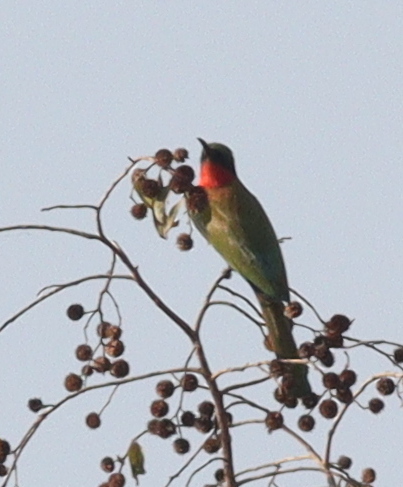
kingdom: Animalia
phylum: Chordata
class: Aves
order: Coraciiformes
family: Meropidae
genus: Merops
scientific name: Merops bulocki
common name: Red-throated bee-eater
